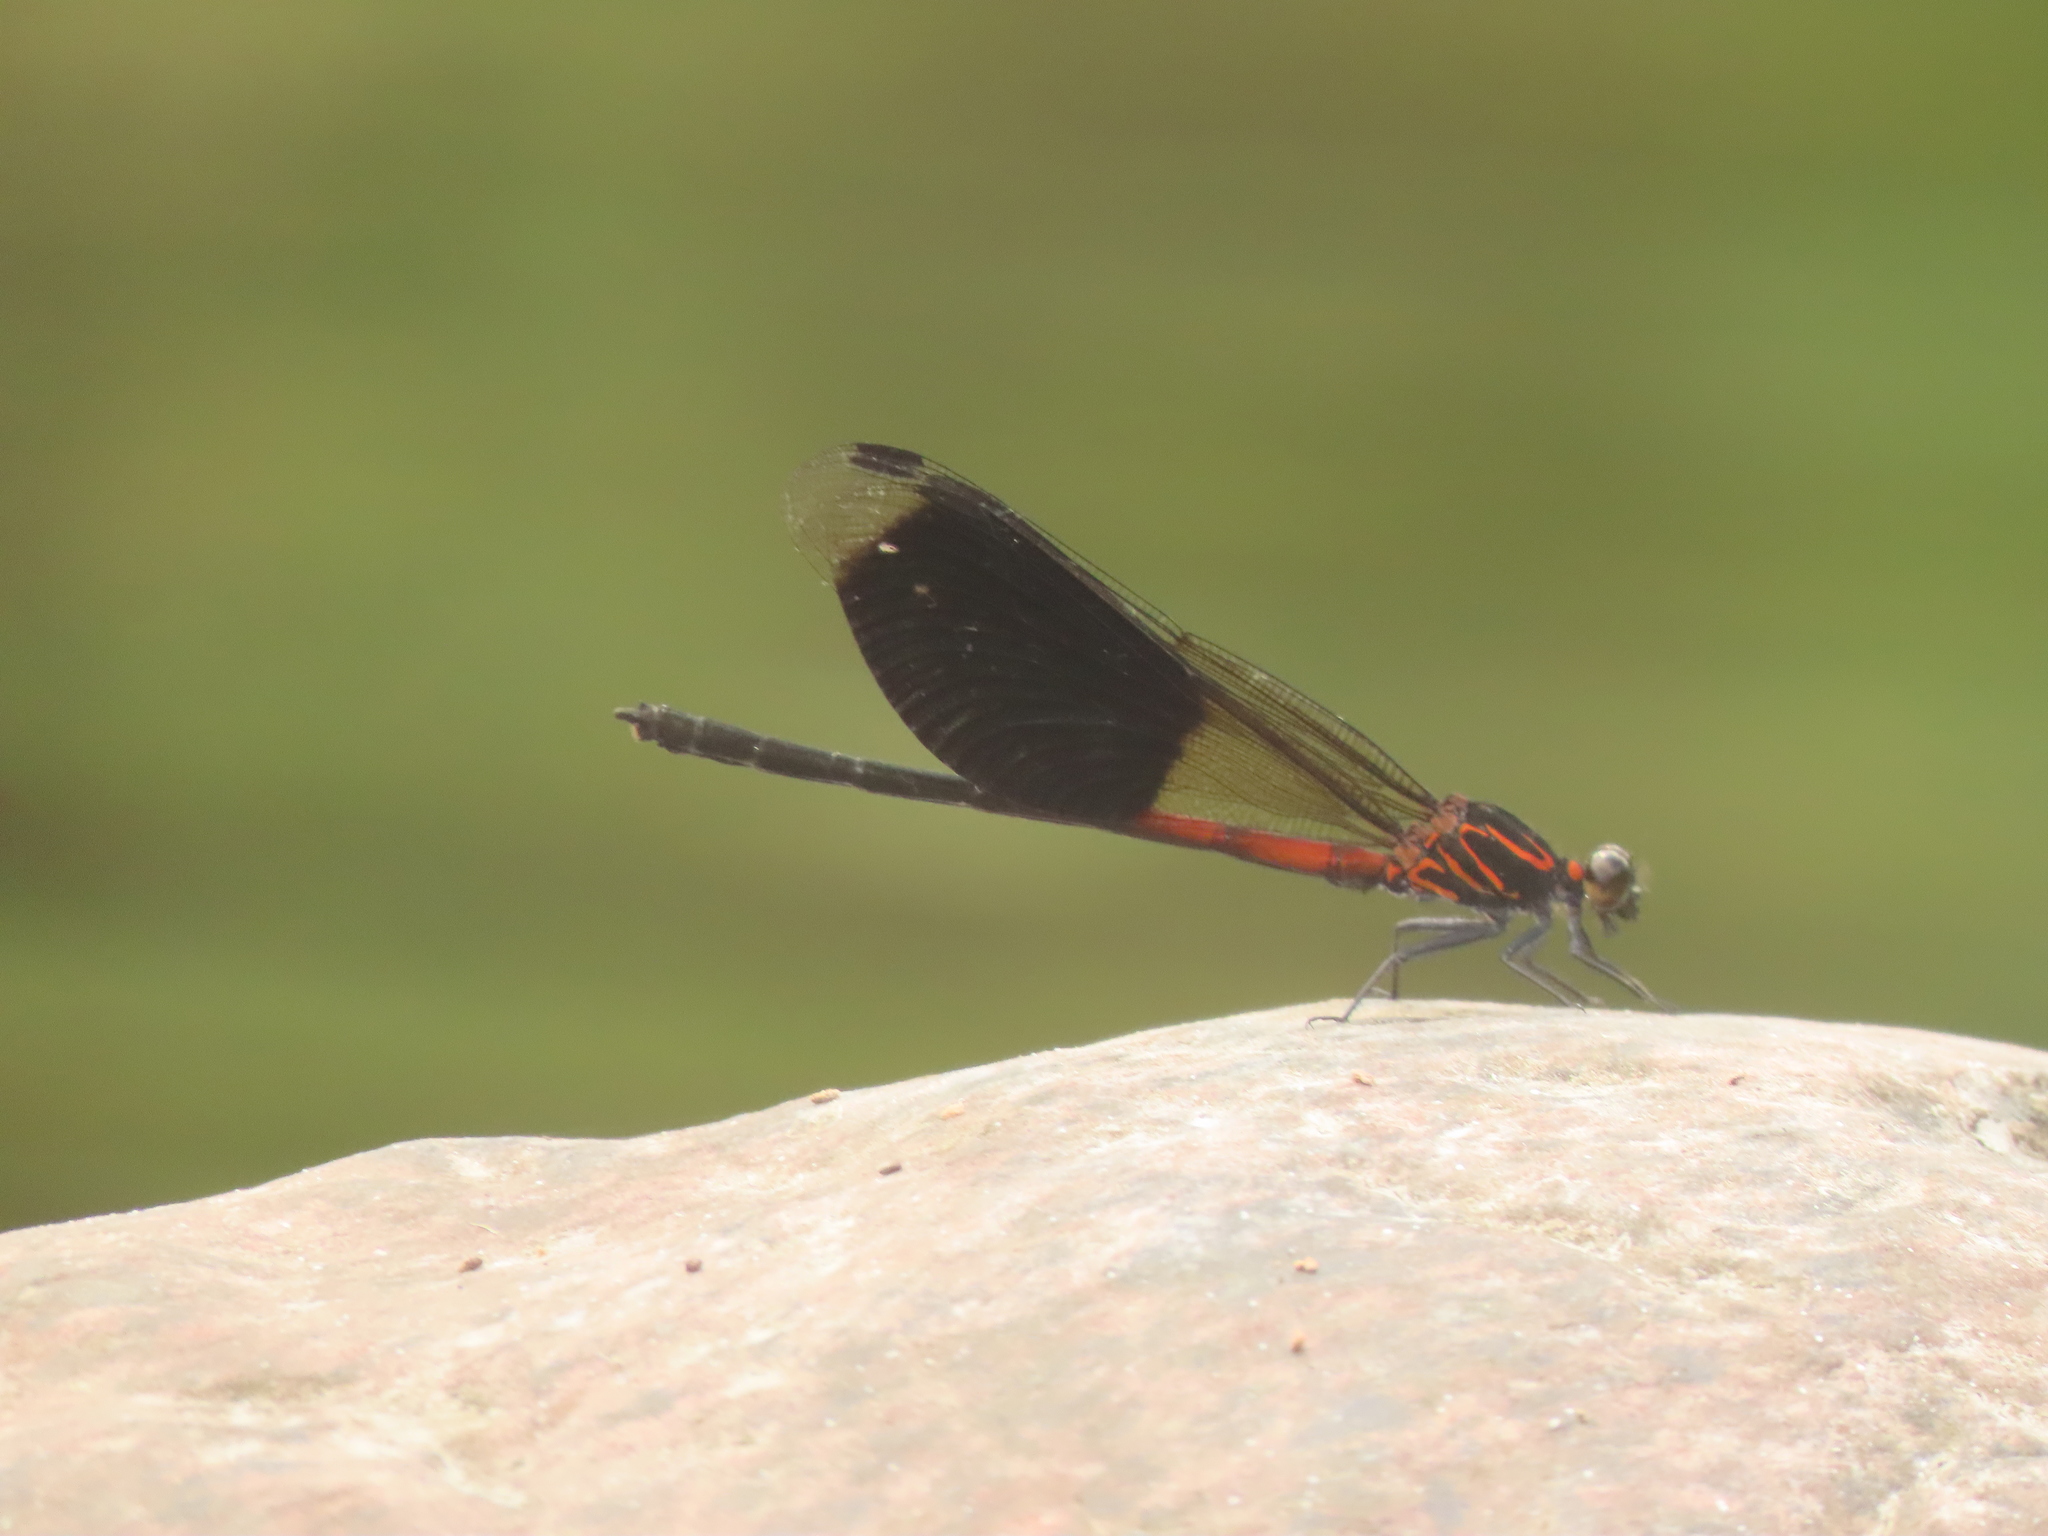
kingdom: Animalia
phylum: Arthropoda
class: Insecta
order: Odonata
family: Euphaeidae
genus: Euphaea
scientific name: Euphaea formosa
